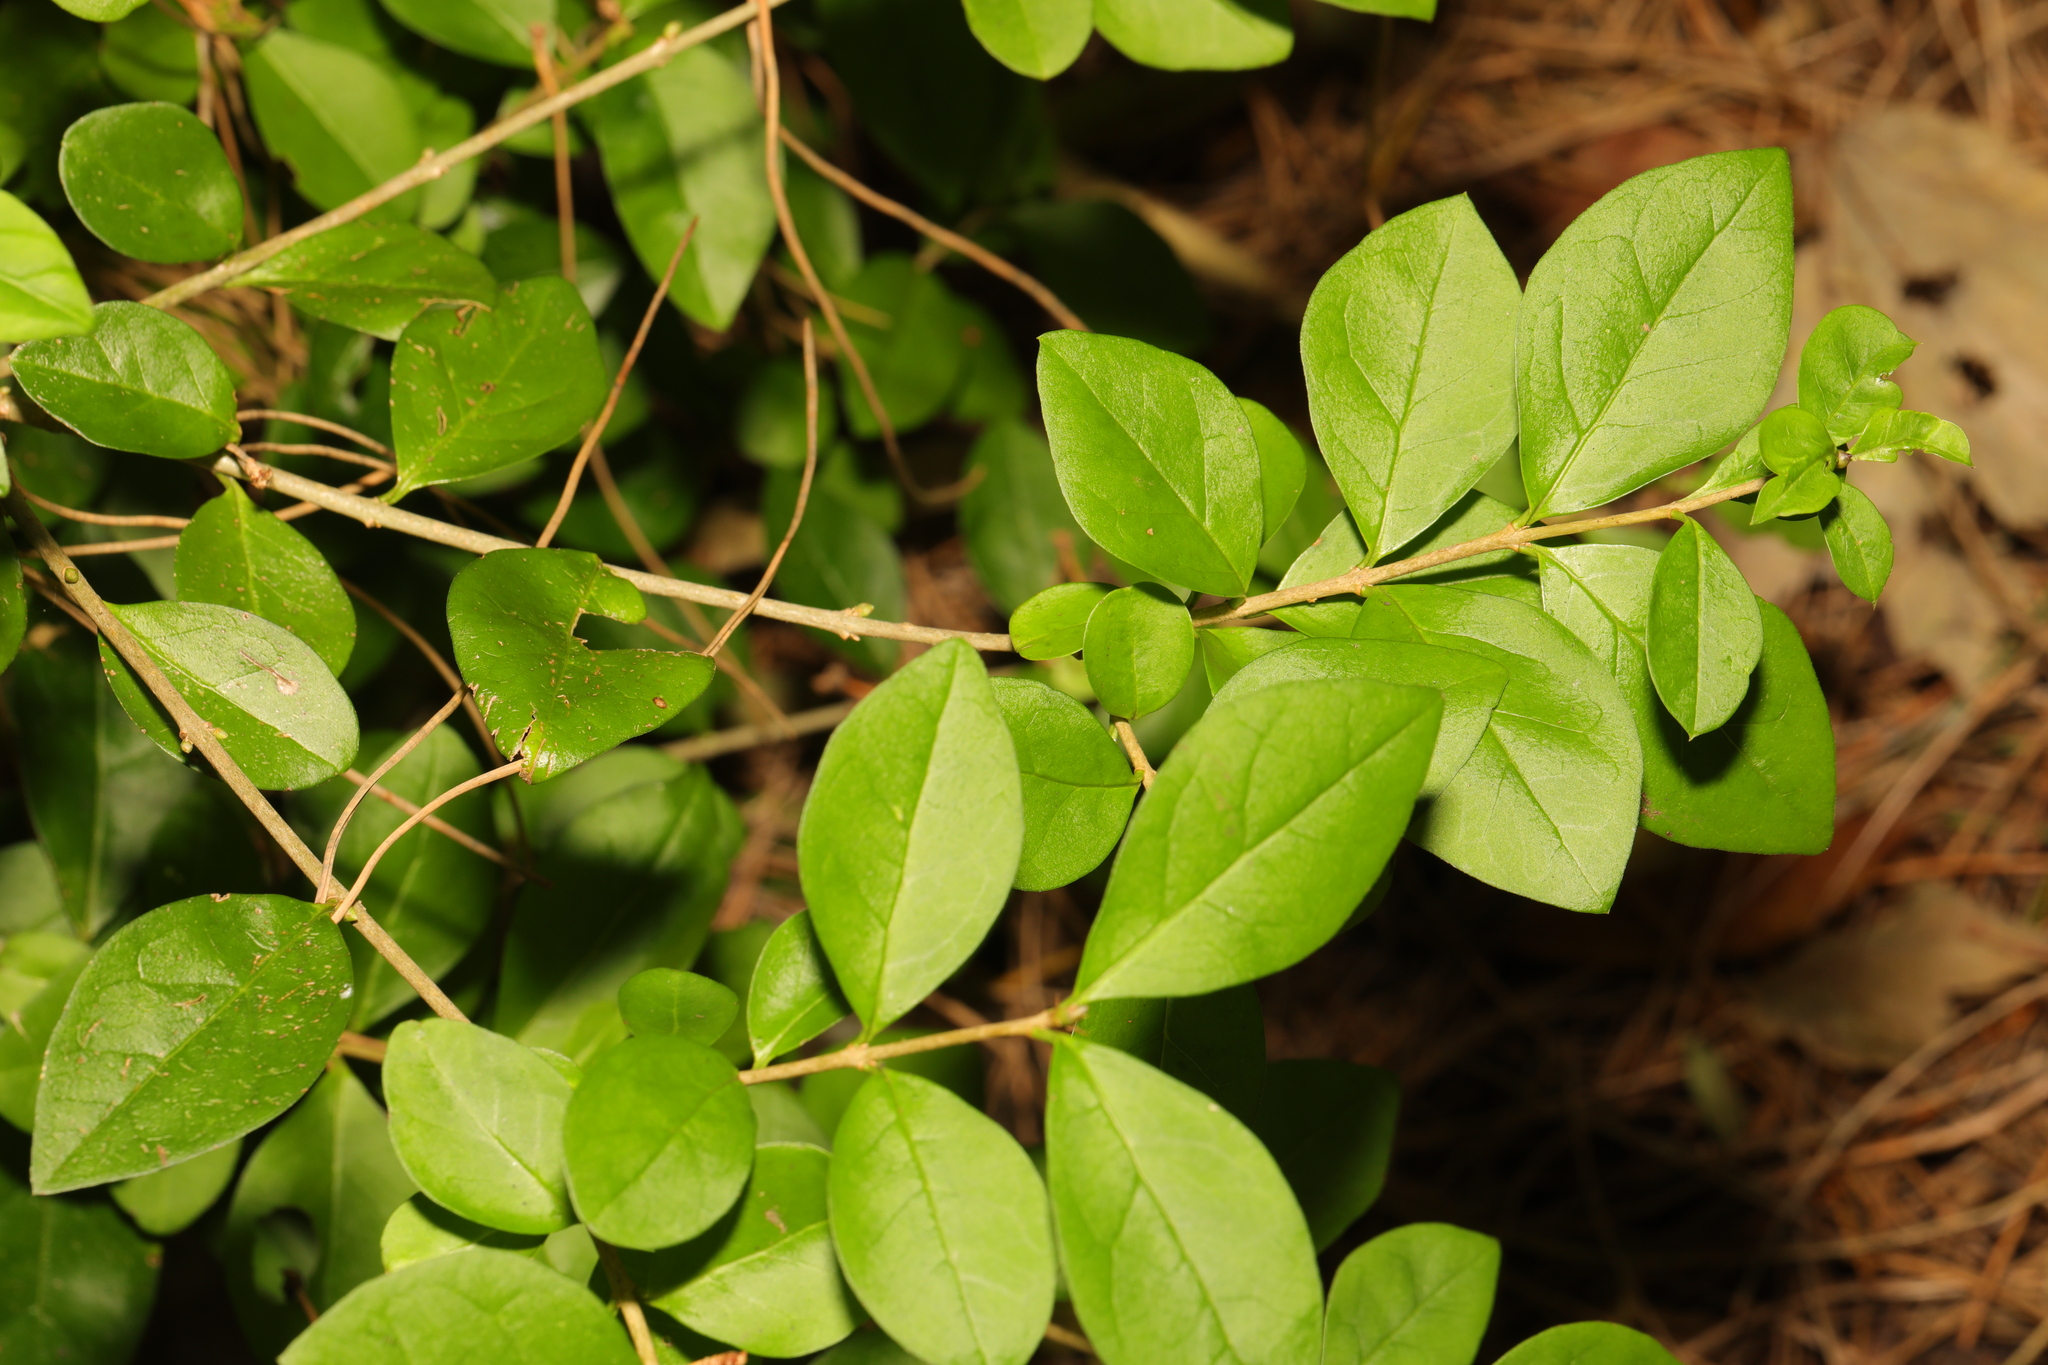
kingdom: Plantae
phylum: Tracheophyta
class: Magnoliopsida
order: Lamiales
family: Oleaceae
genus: Ligustrum
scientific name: Ligustrum ovalifolium
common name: California privet
